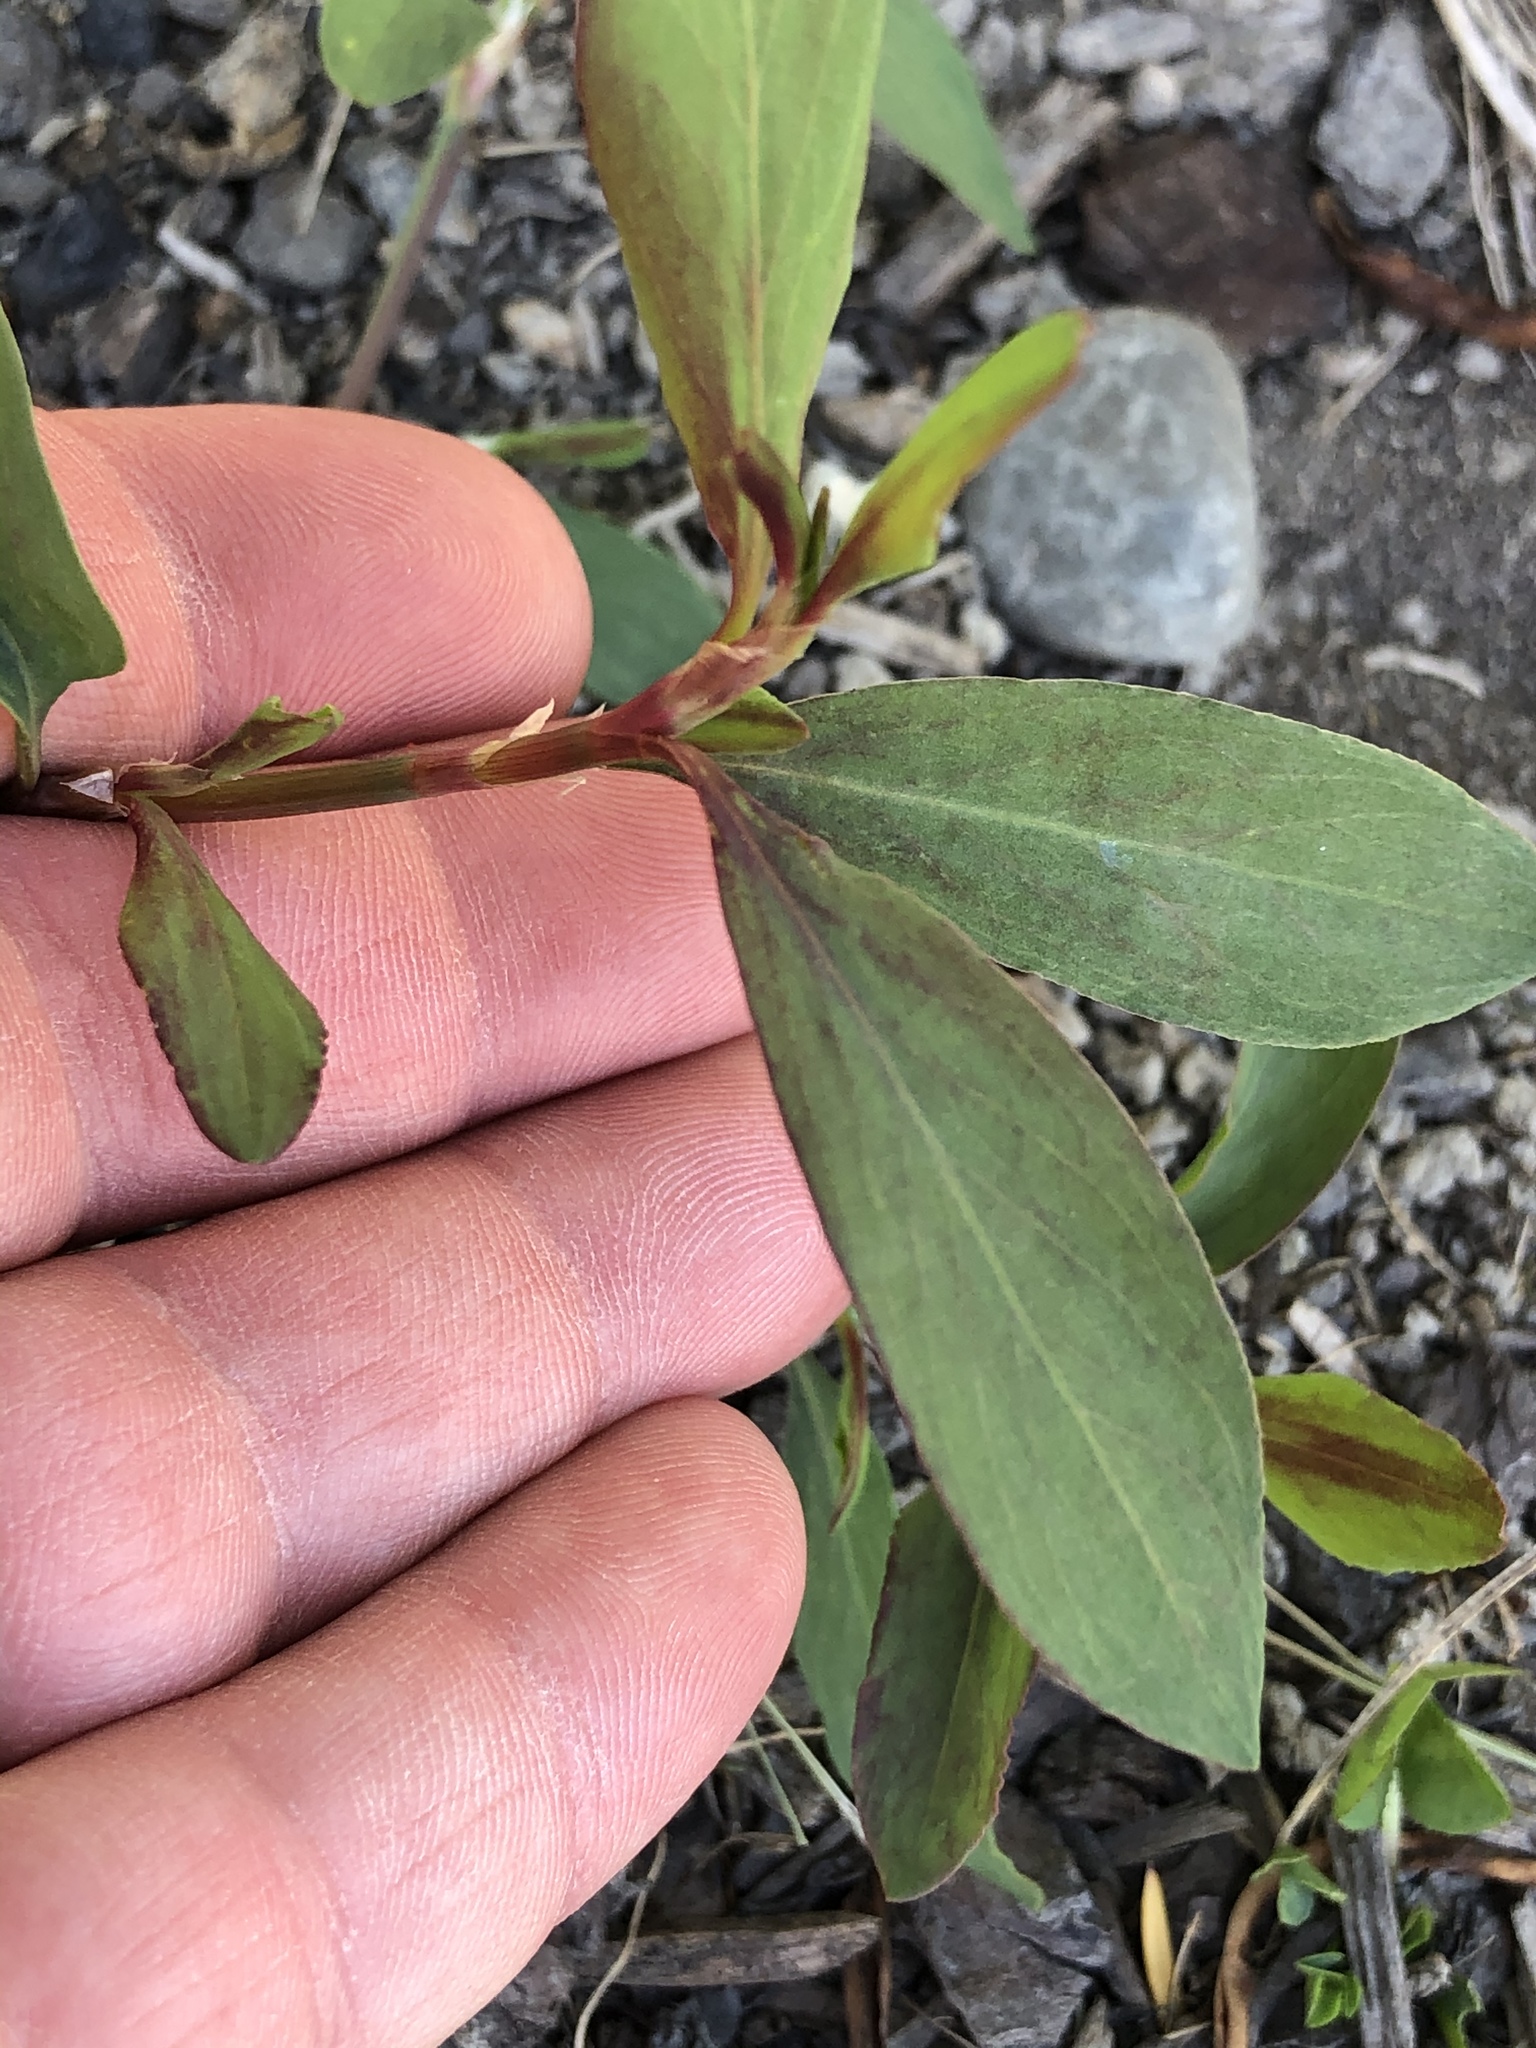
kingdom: Plantae
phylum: Tracheophyta
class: Magnoliopsida
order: Caryophyllales
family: Polygonaceae
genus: Polygonum
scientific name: Polygonum aviculare
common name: Prostrate knotweed
